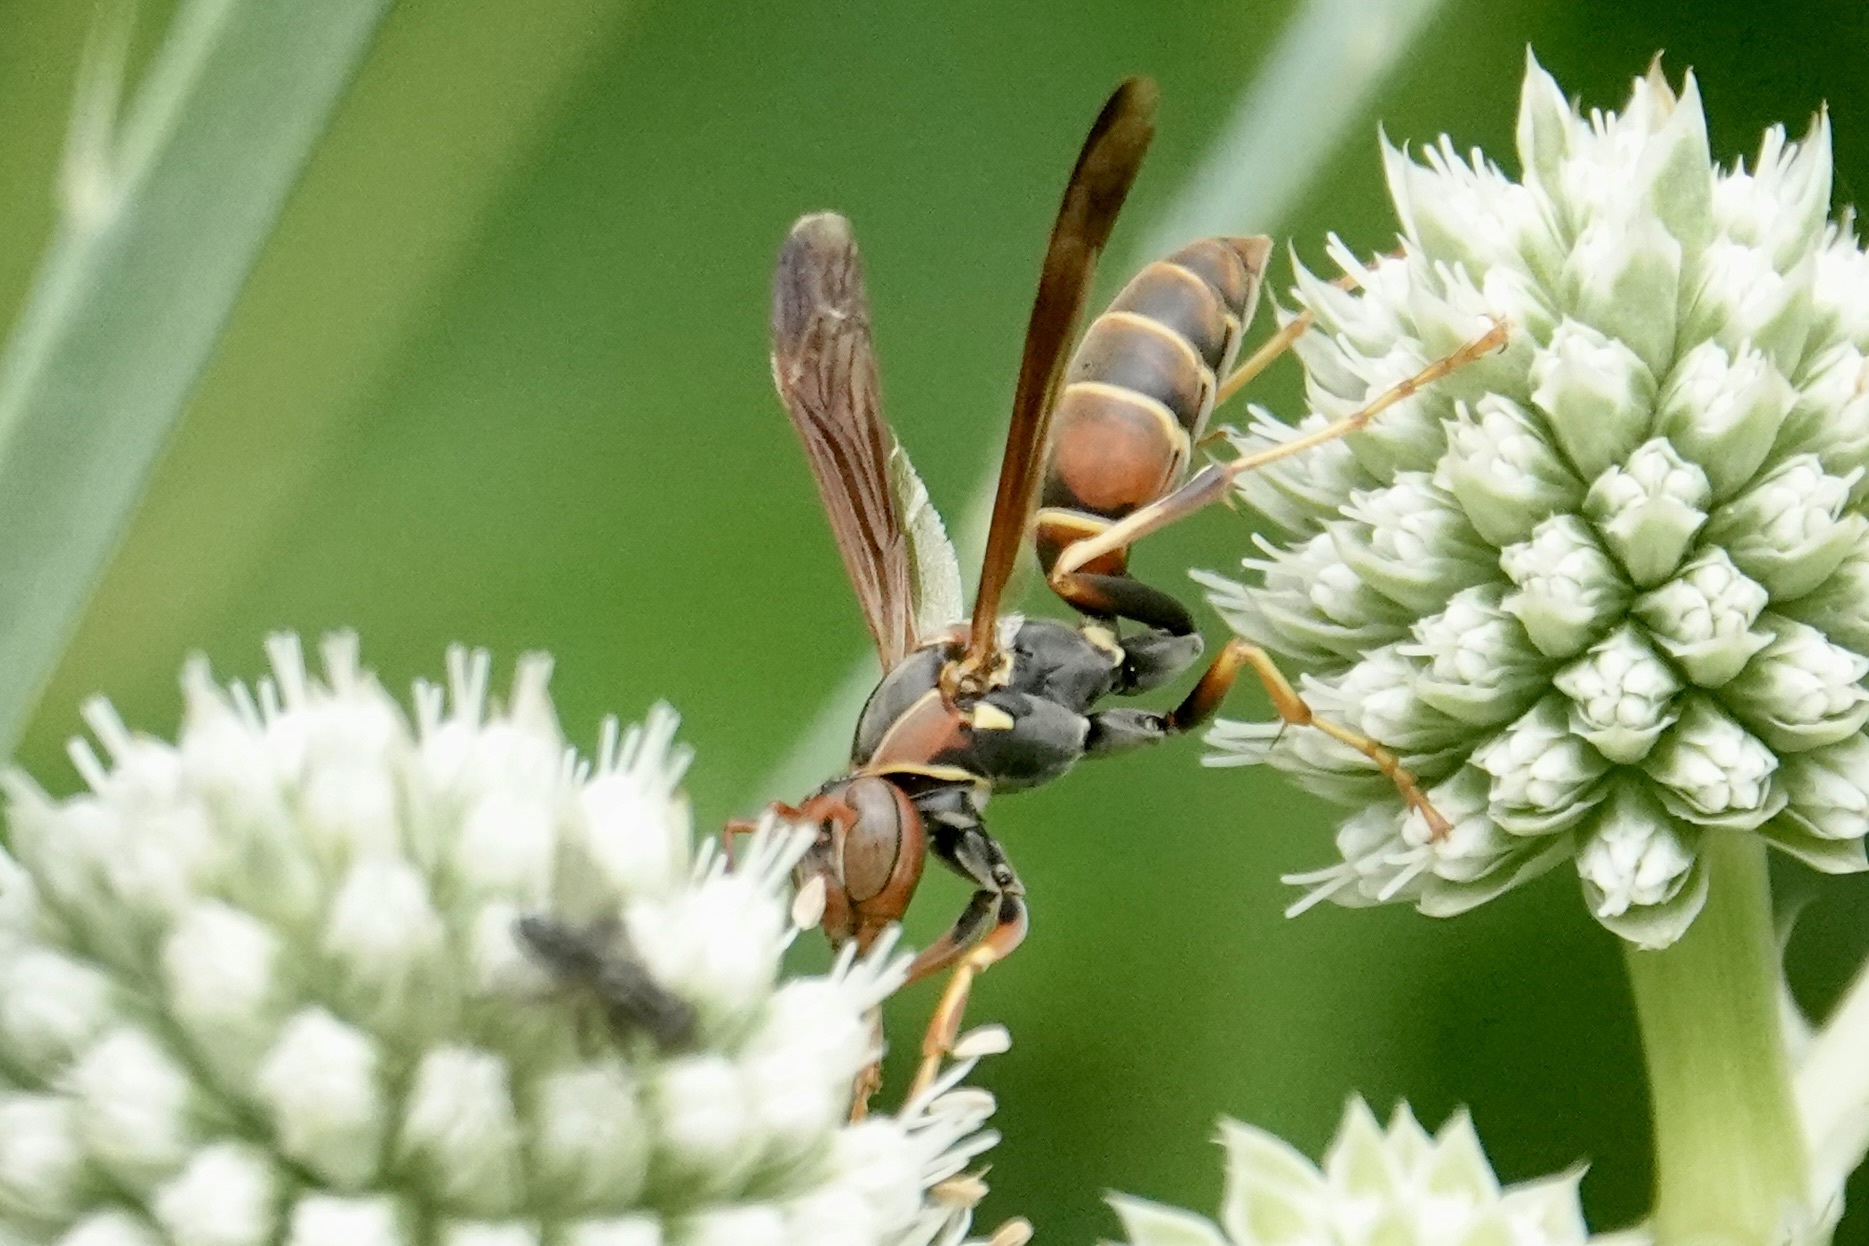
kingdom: Animalia
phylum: Arthropoda
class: Insecta
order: Hymenoptera
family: Eumenidae
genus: Polistes
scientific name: Polistes dorsalis
